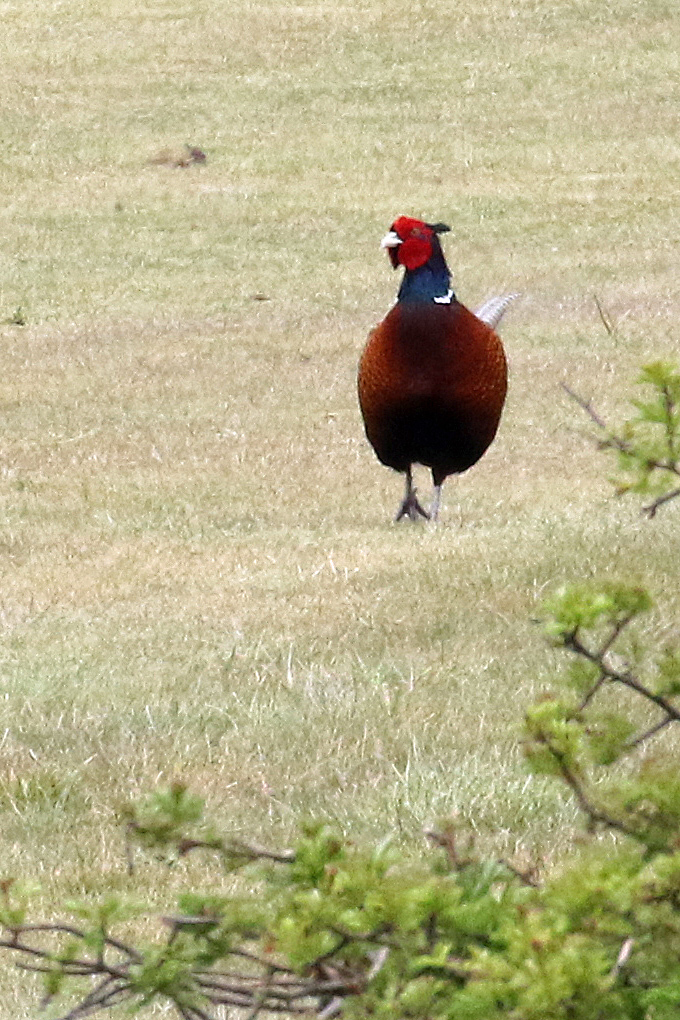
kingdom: Animalia
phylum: Chordata
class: Aves
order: Galliformes
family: Phasianidae
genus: Phasianus
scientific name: Phasianus colchicus
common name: Common pheasant
